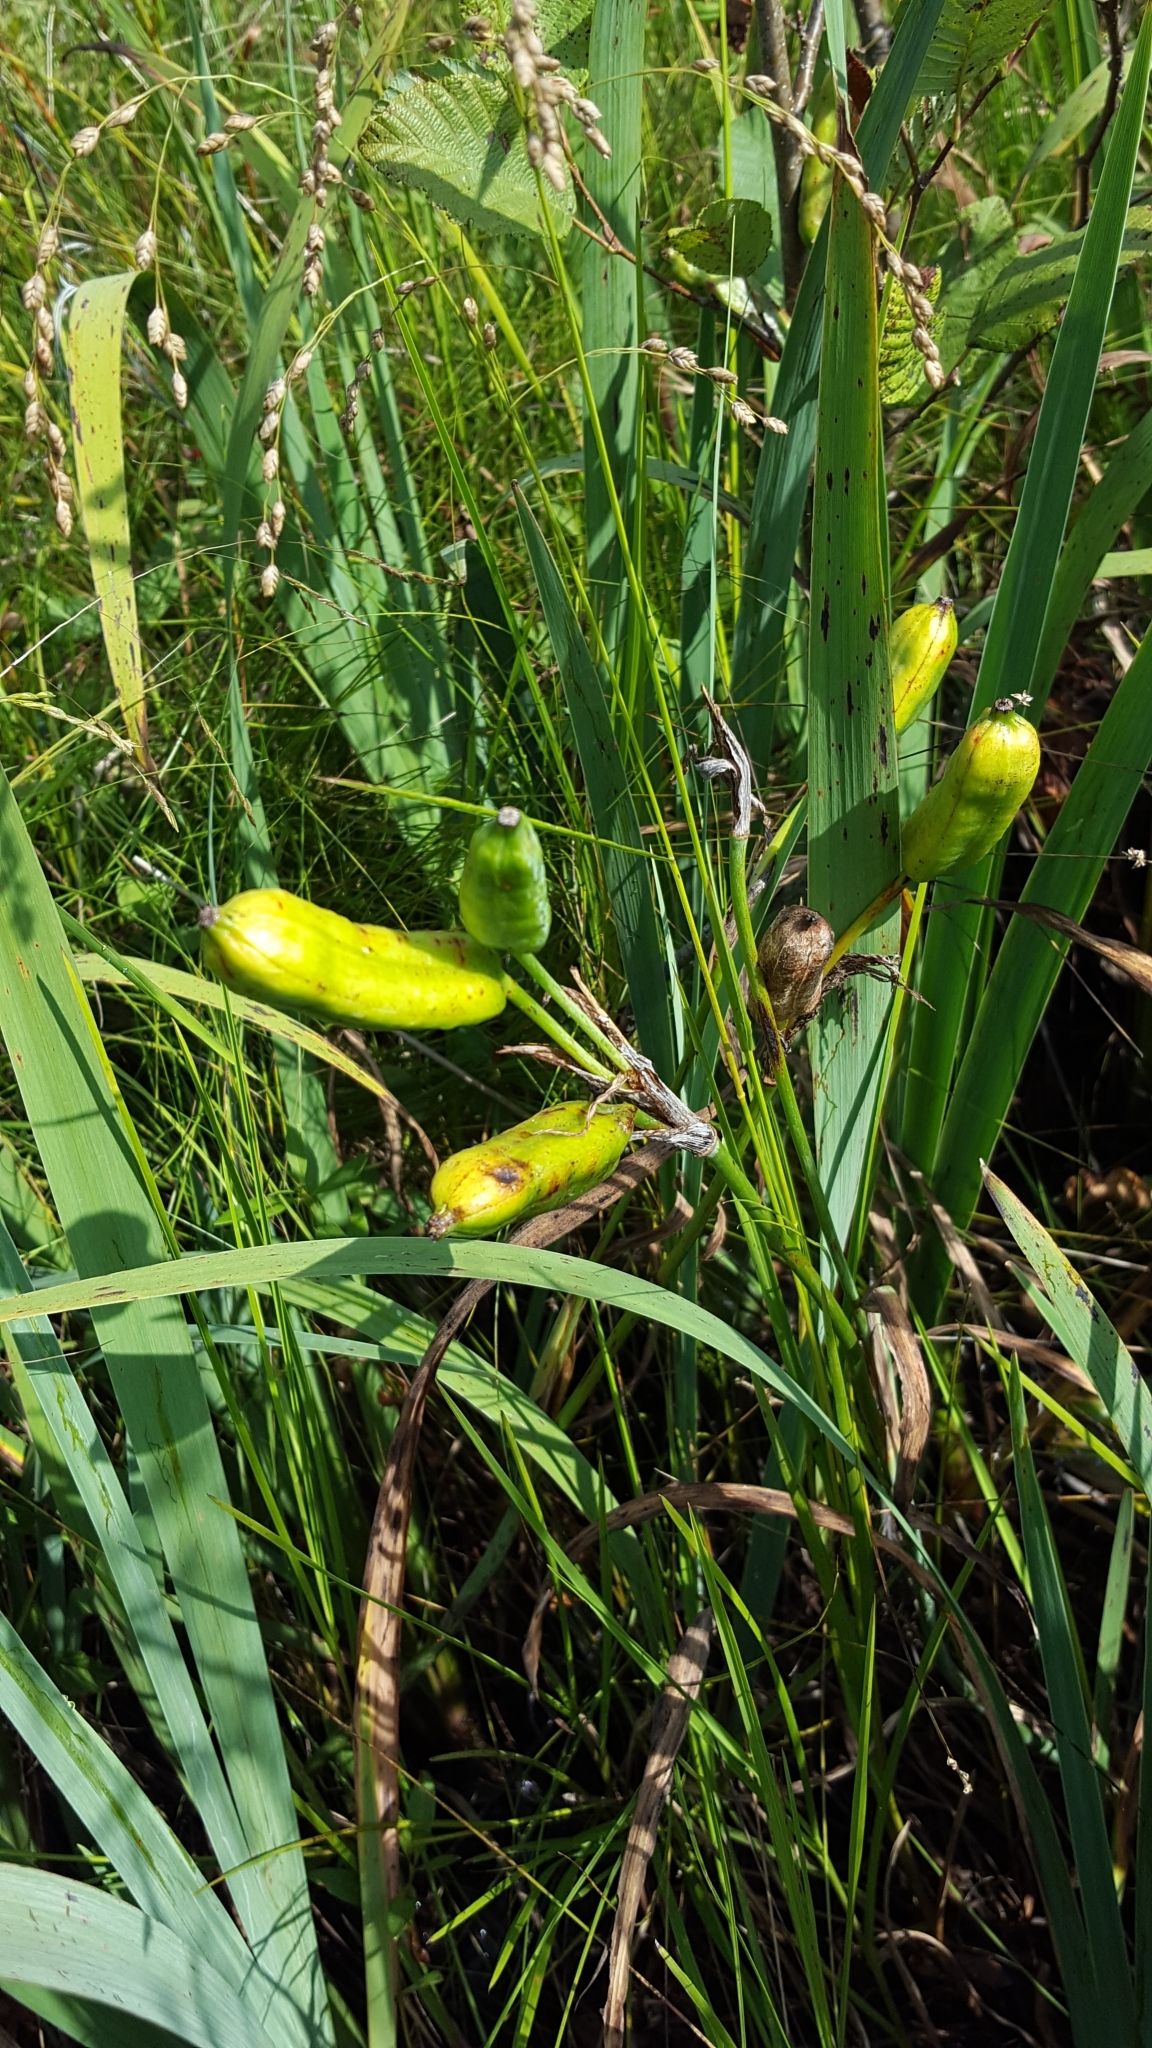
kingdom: Plantae
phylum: Tracheophyta
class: Liliopsida
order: Asparagales
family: Iridaceae
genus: Iris
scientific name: Iris versicolor
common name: Purple iris
